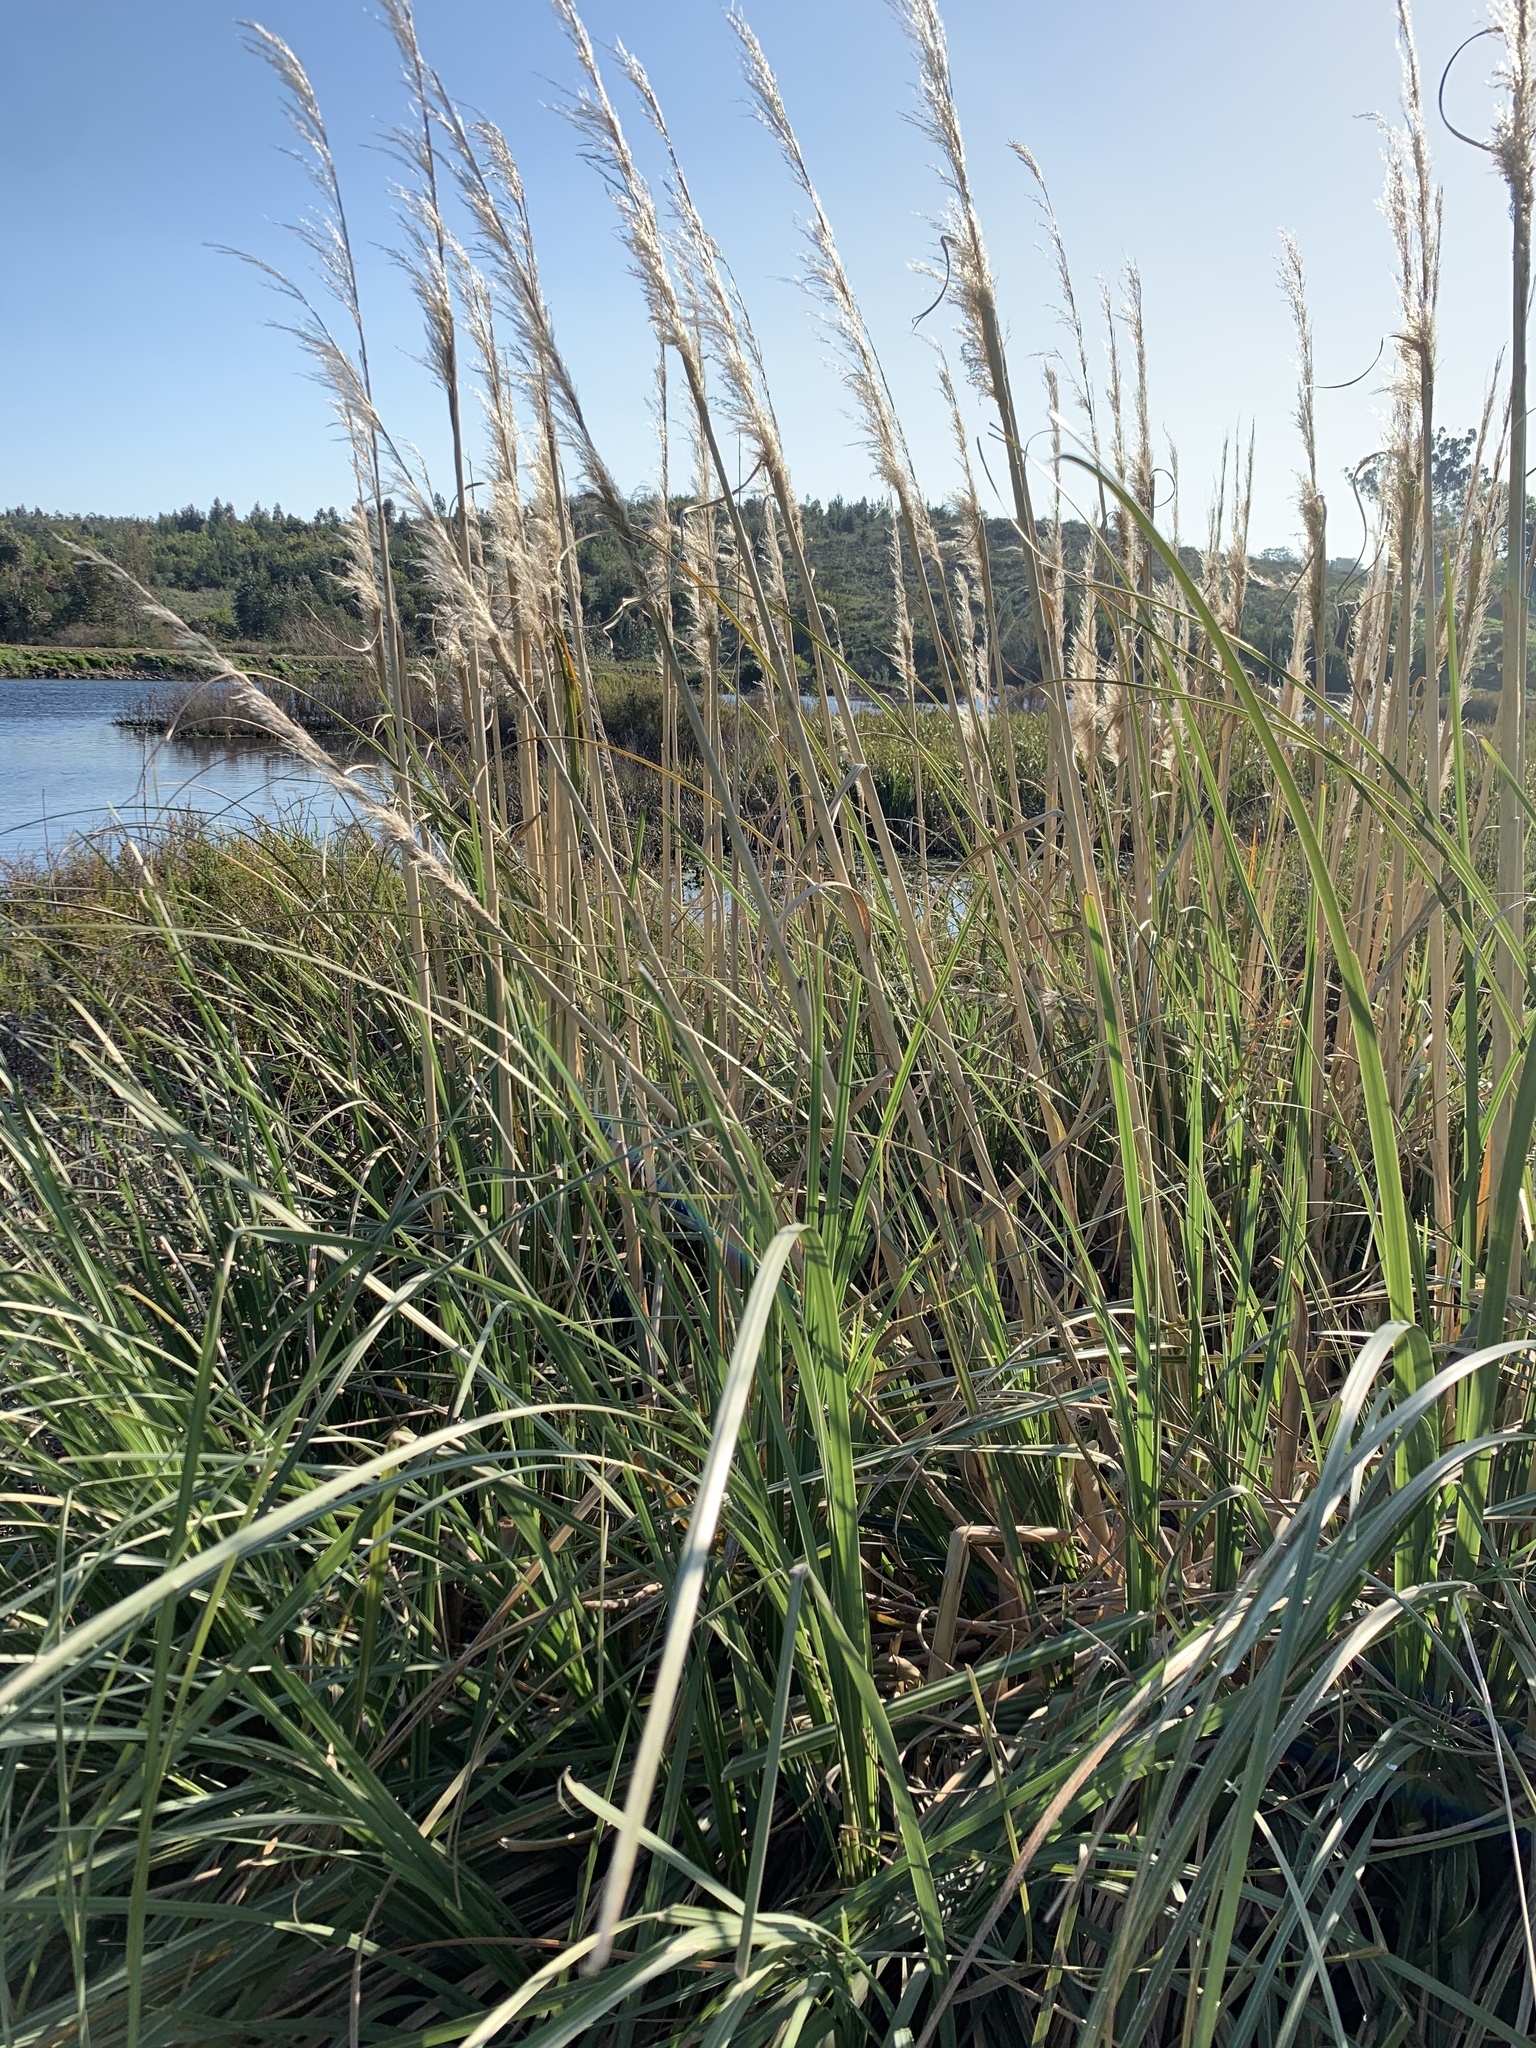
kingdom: Plantae
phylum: Tracheophyta
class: Liliopsida
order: Poales
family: Poaceae
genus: Cortaderia
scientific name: Cortaderia selloana
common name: Uruguayan pampas grass
